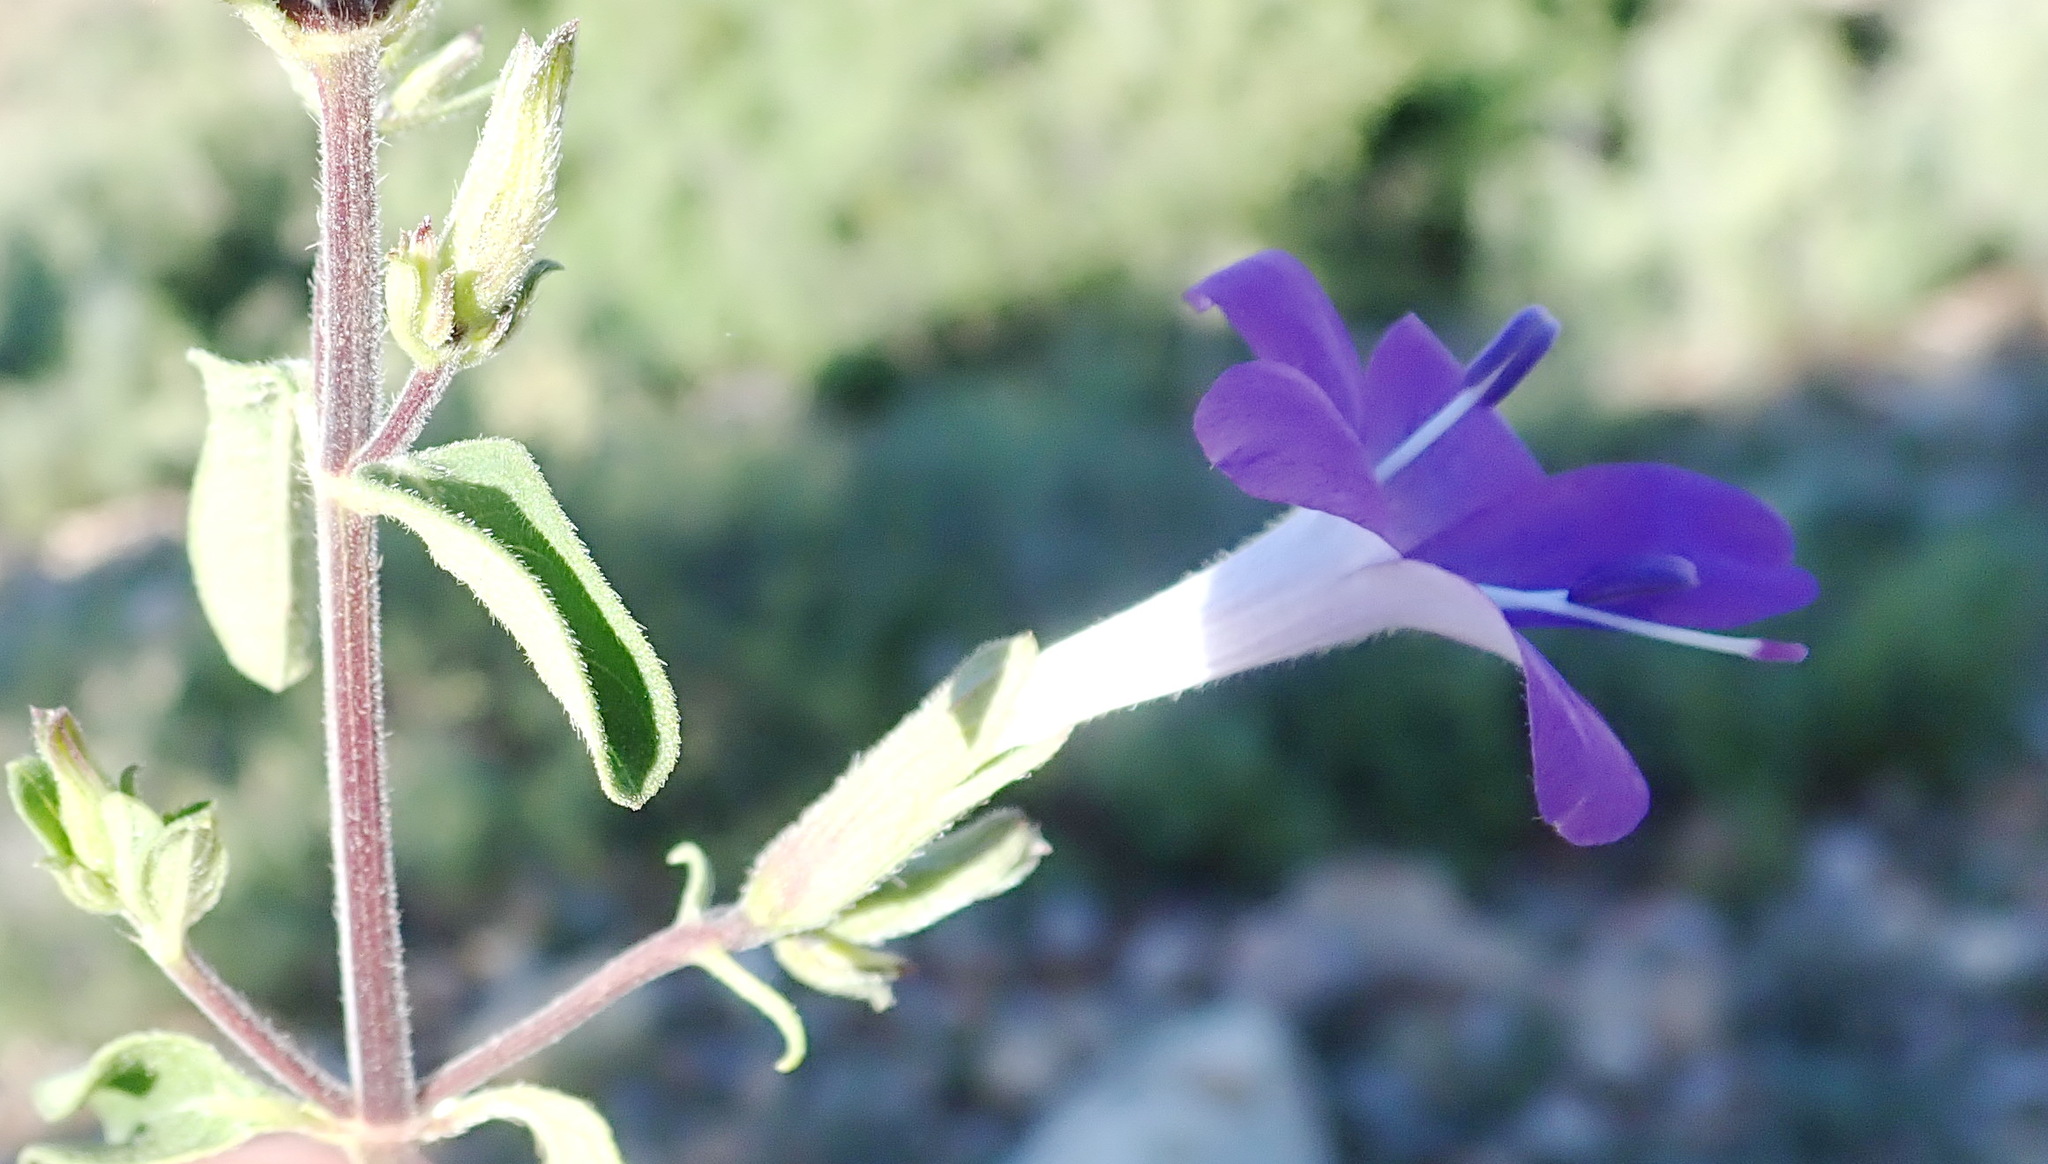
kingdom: Plantae
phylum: Tracheophyta
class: Magnoliopsida
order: Lamiales
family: Acanthaceae
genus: Barleria
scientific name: Barleria obtusa
